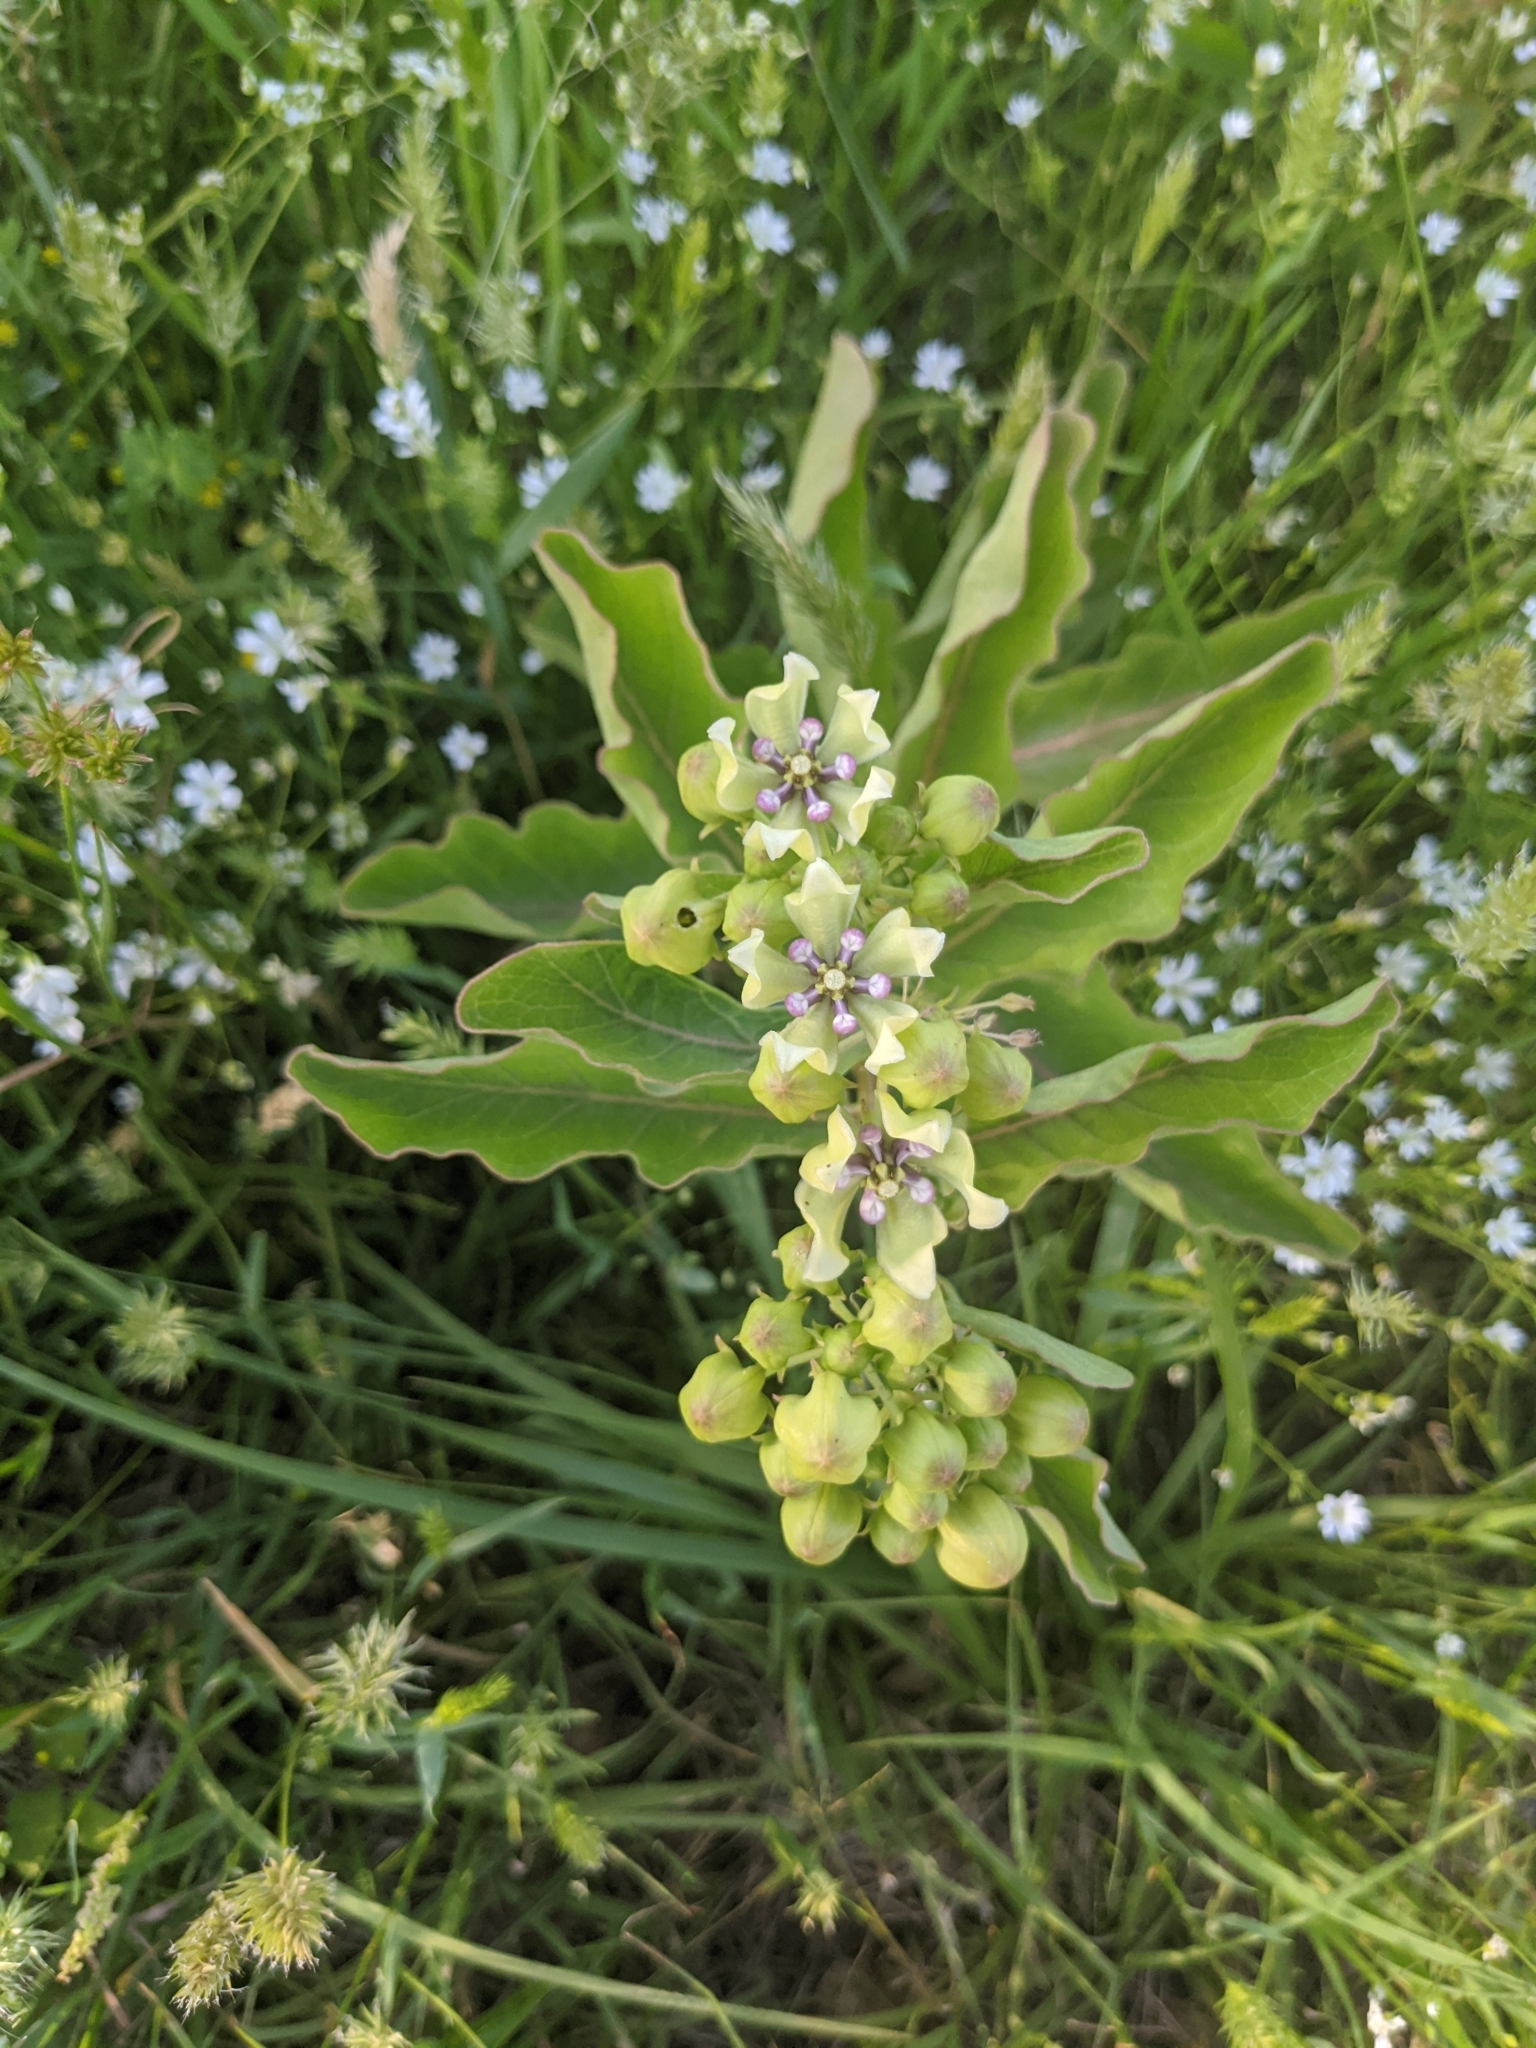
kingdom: Plantae
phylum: Tracheophyta
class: Magnoliopsida
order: Gentianales
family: Apocynaceae
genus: Asclepias
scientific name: Asclepias viridis
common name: Antelope-horns
